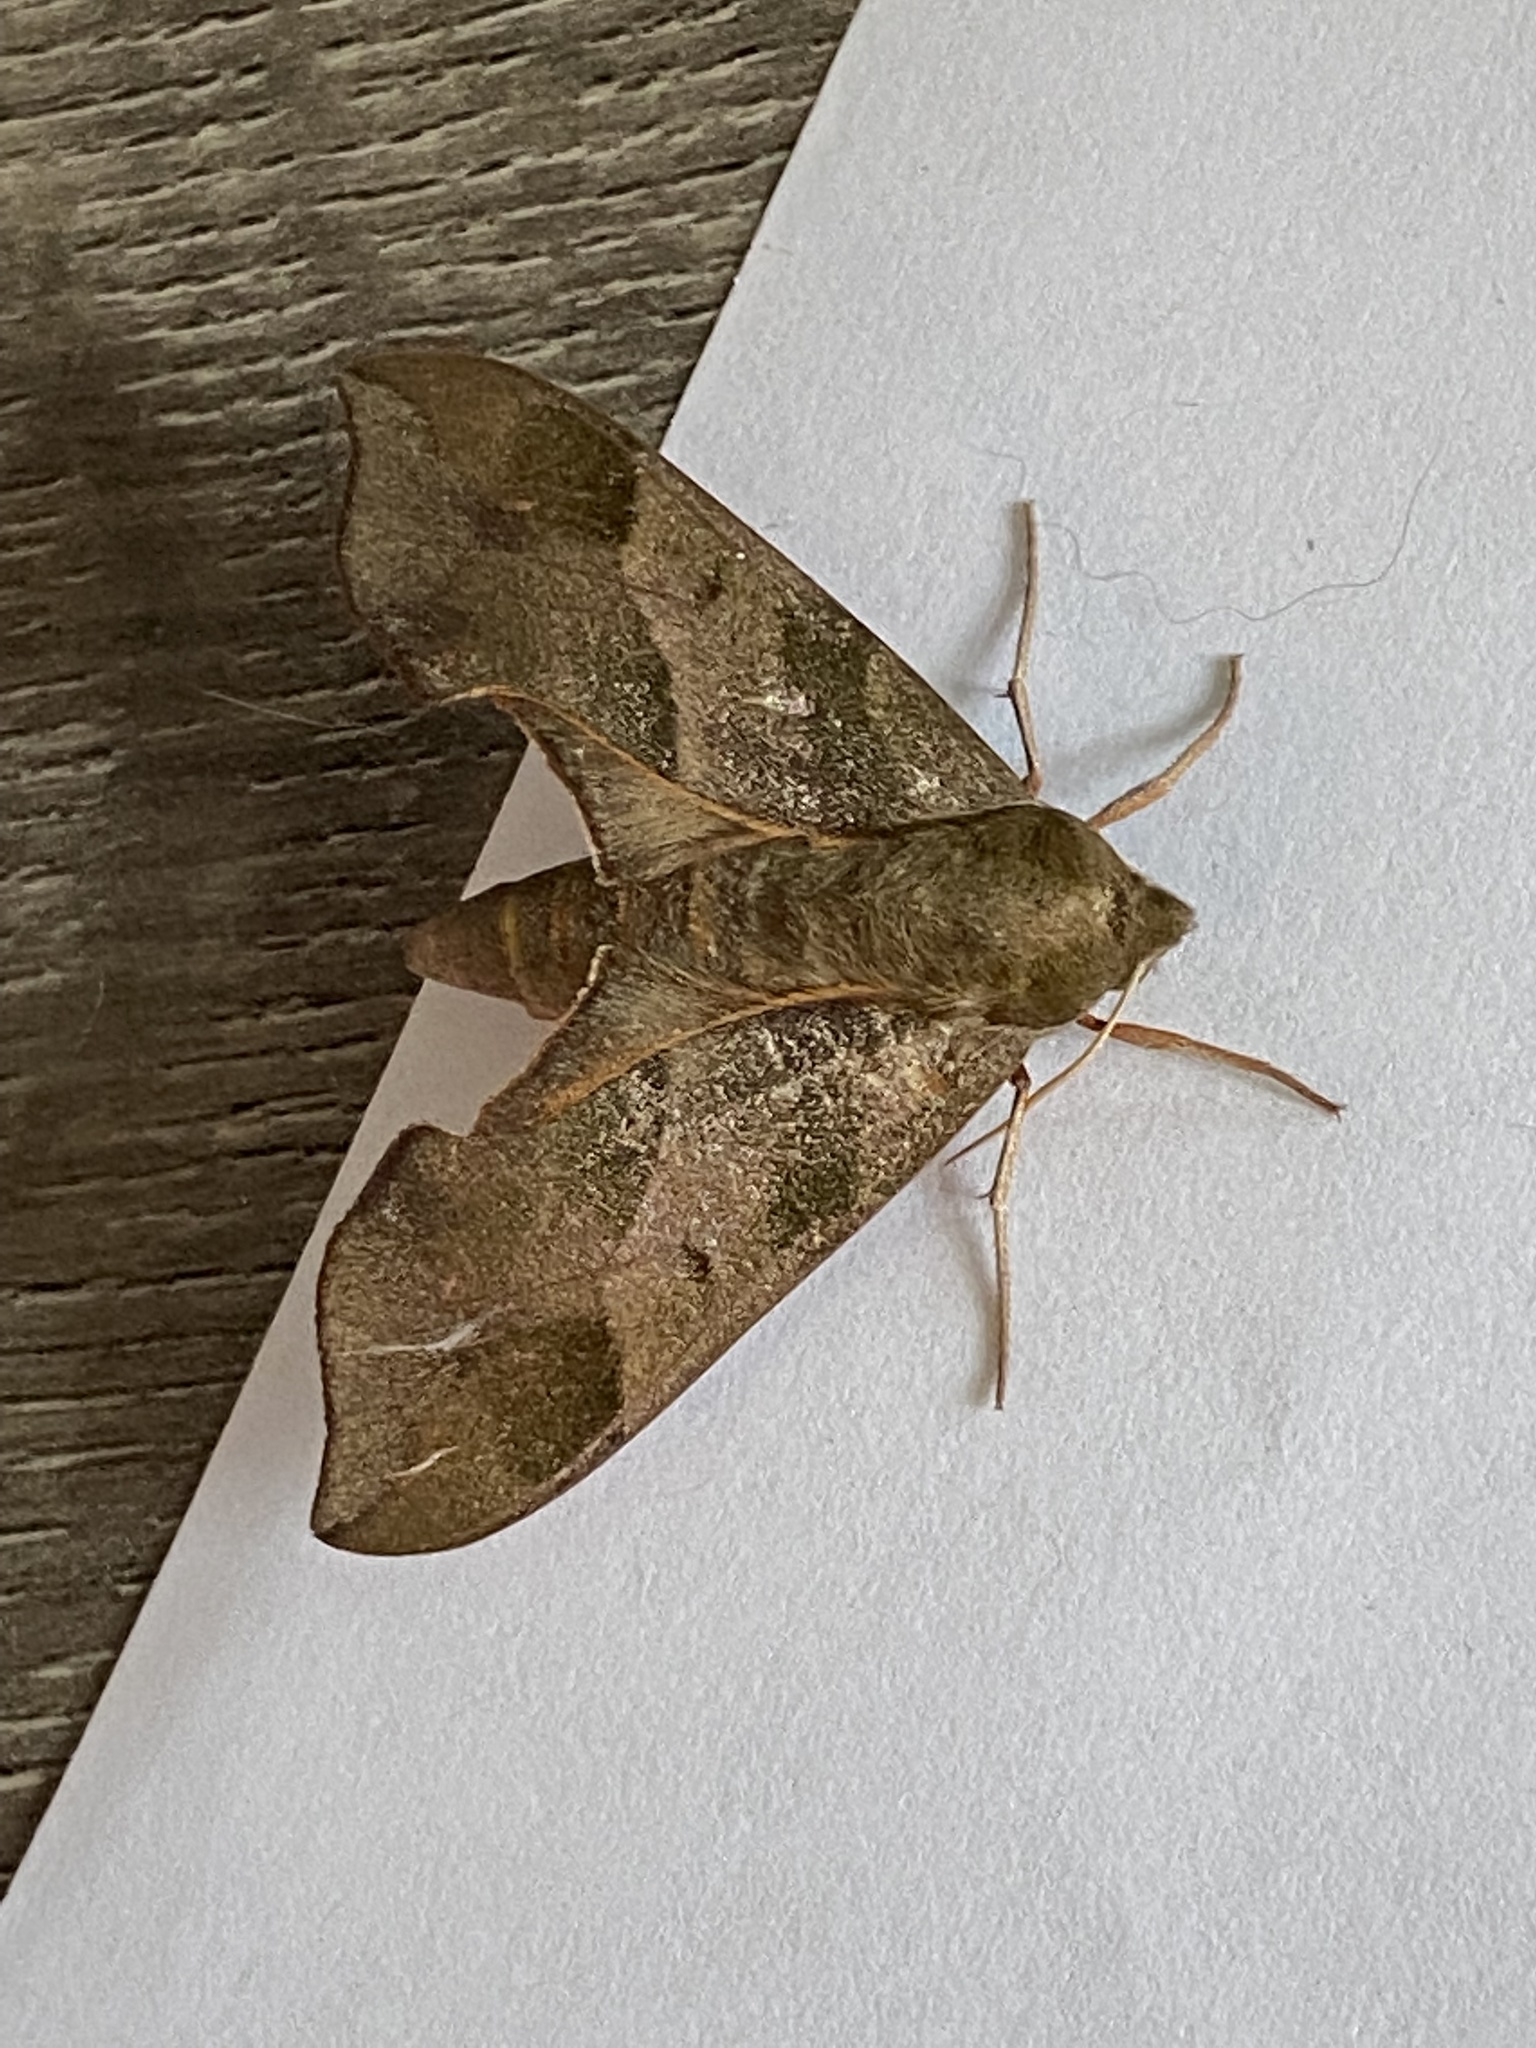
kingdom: Animalia
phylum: Arthropoda
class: Insecta
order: Lepidoptera
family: Sphingidae
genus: Darapsa
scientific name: Darapsa myron
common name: Hog sphinx
